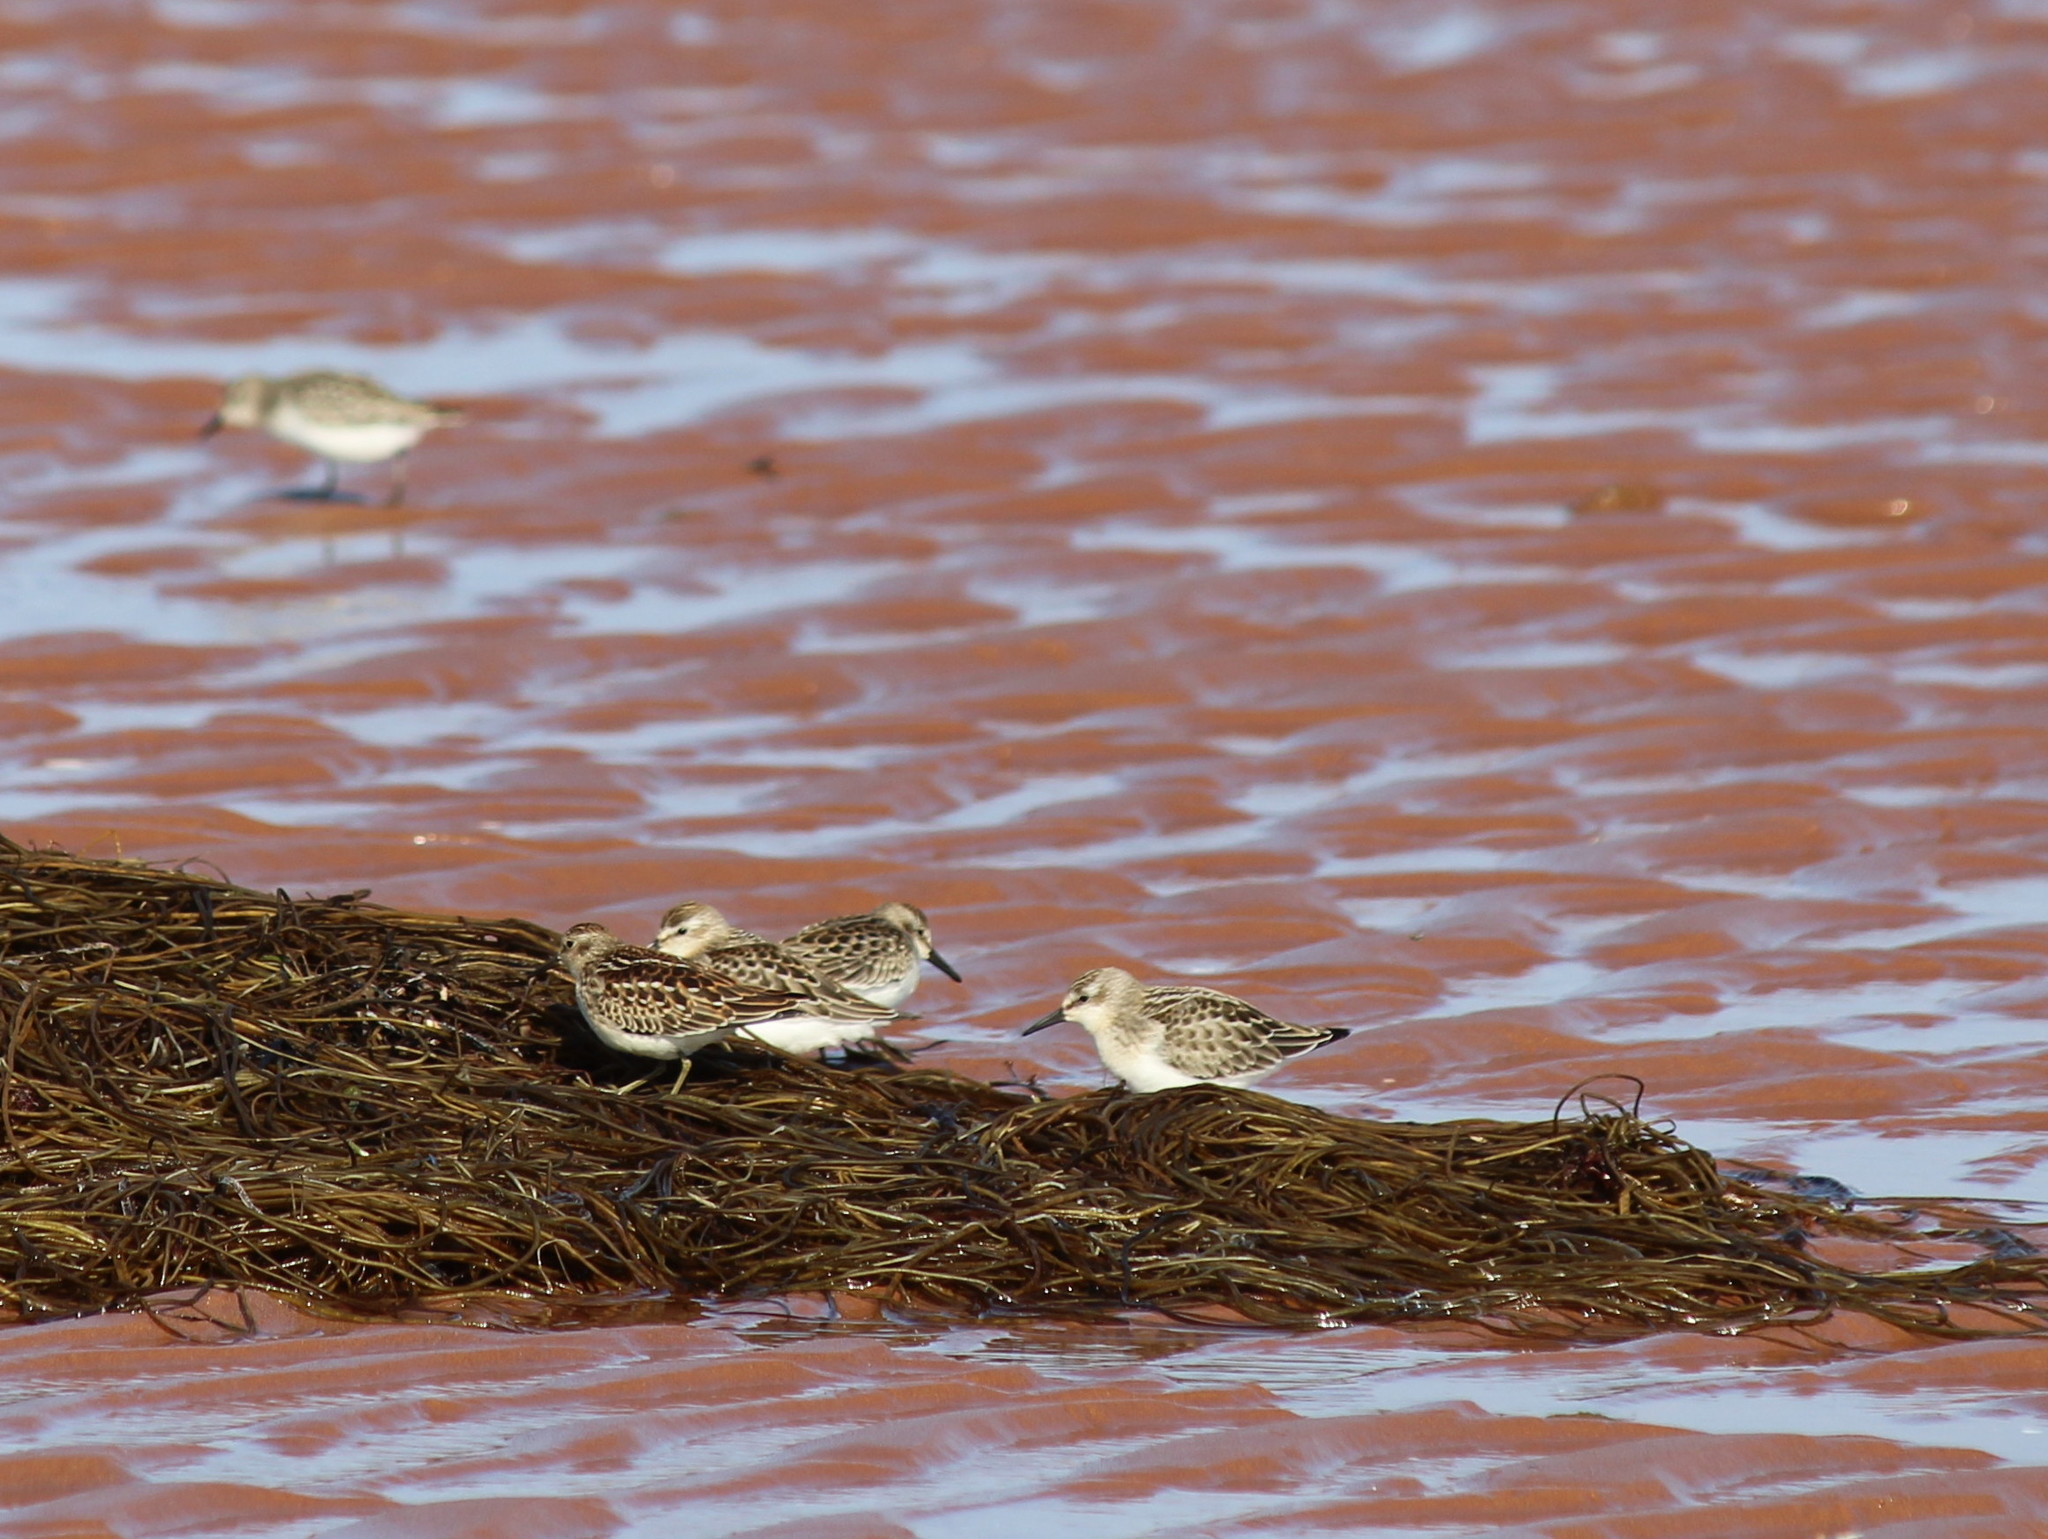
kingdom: Animalia
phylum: Chordata
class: Aves
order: Charadriiformes
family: Scolopacidae
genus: Calidris
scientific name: Calidris minutilla
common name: Least sandpiper
